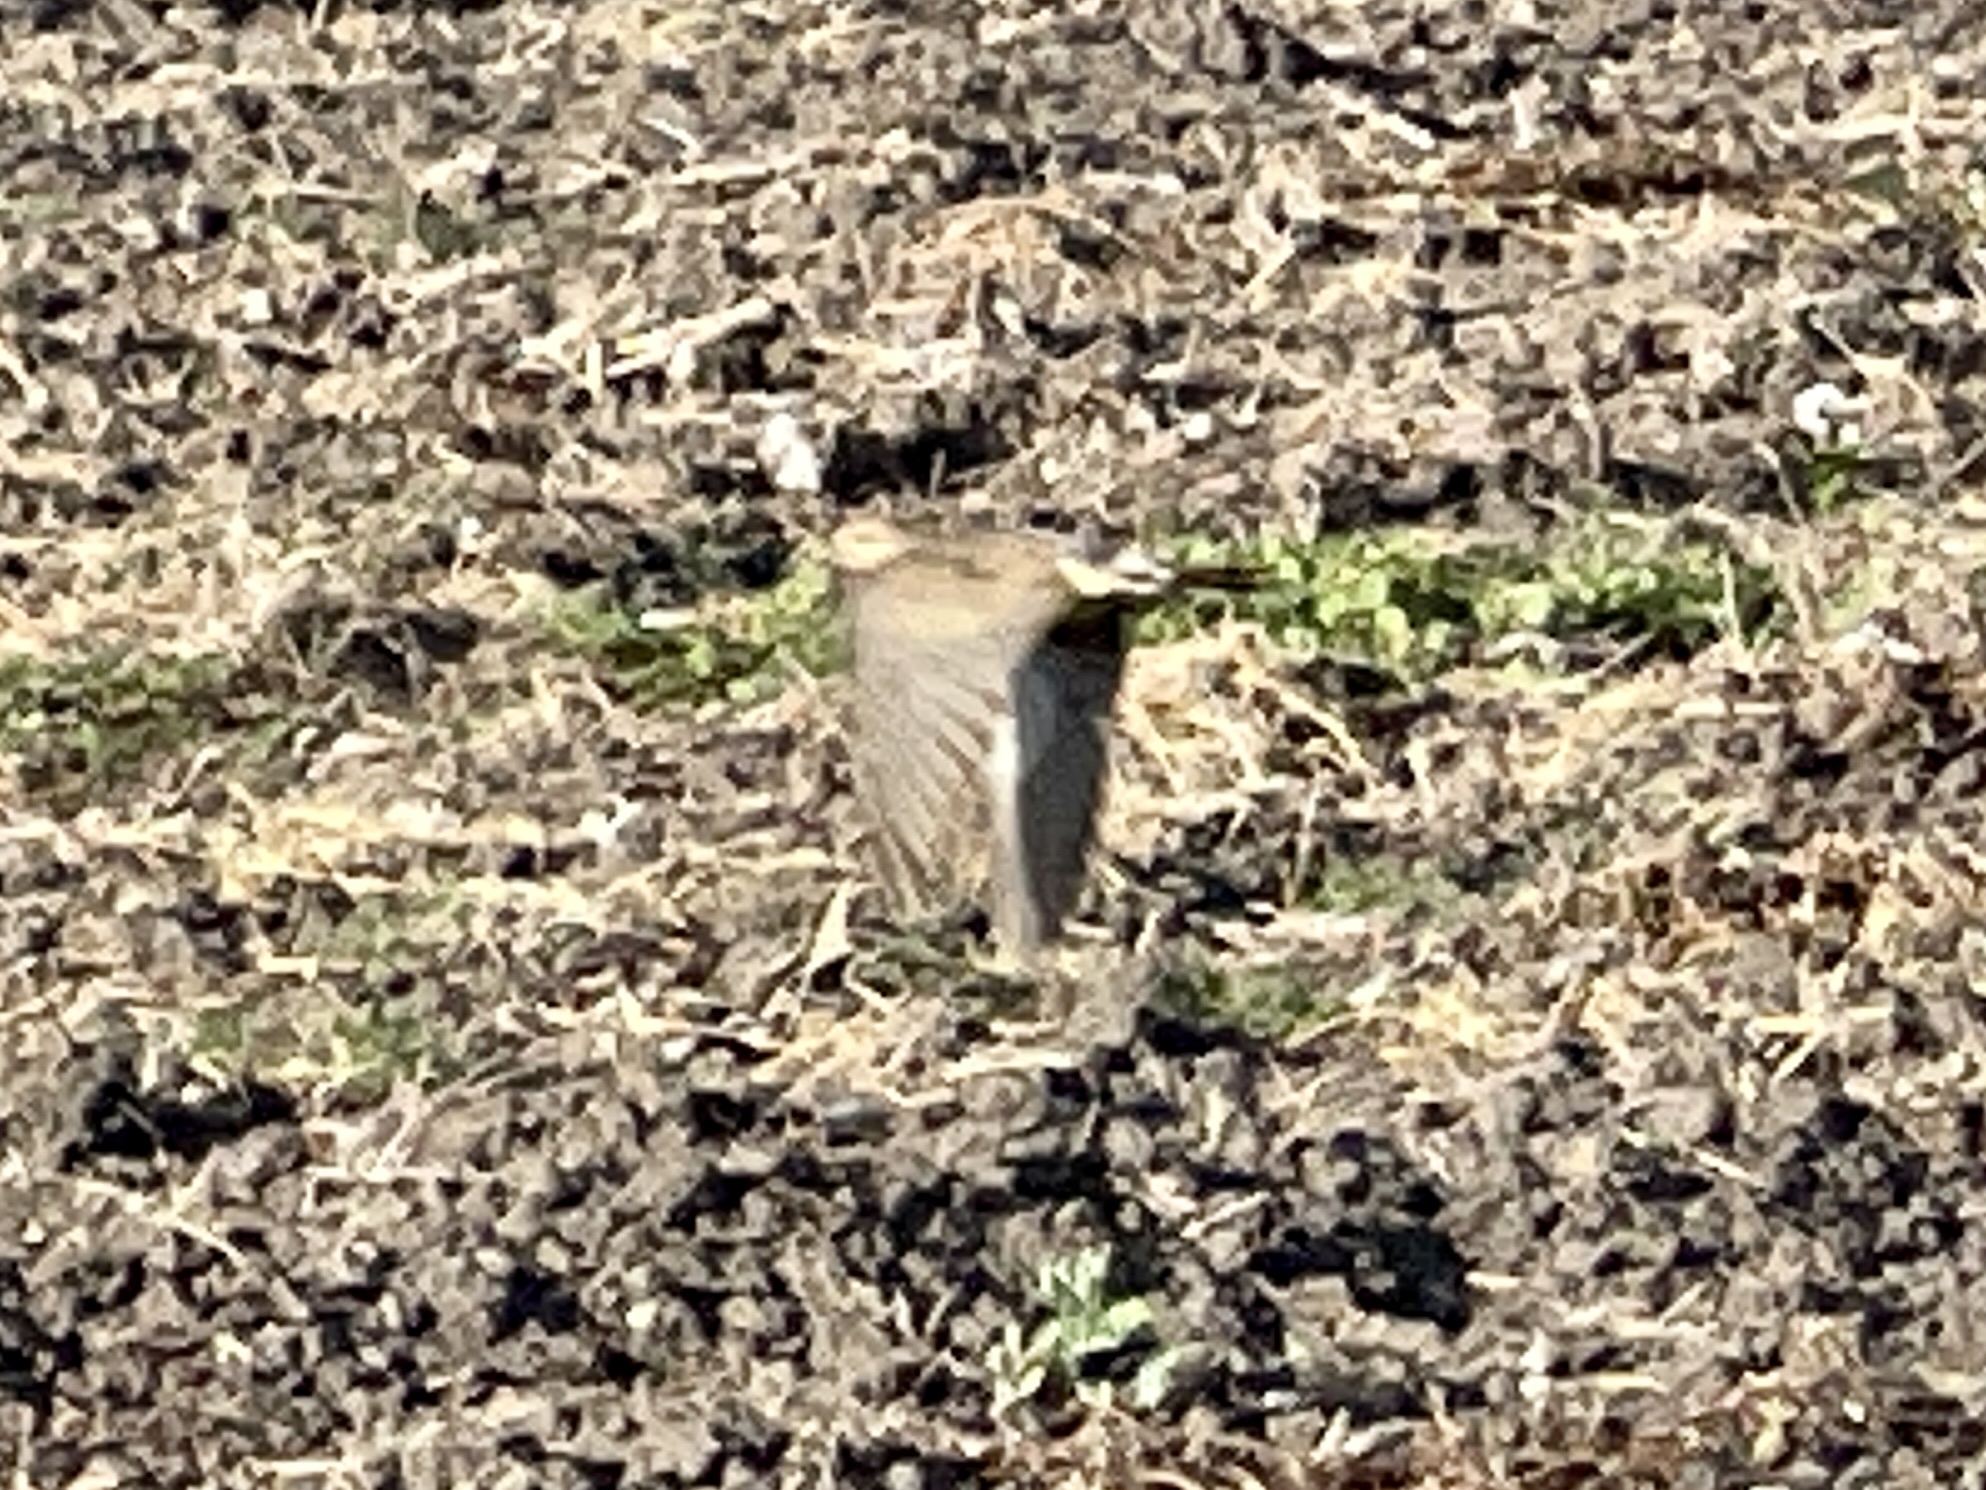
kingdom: Animalia
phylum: Chordata
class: Aves
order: Columbiformes
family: Columbidae
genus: Zenaida
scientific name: Zenaida macroura
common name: Mourning dove
